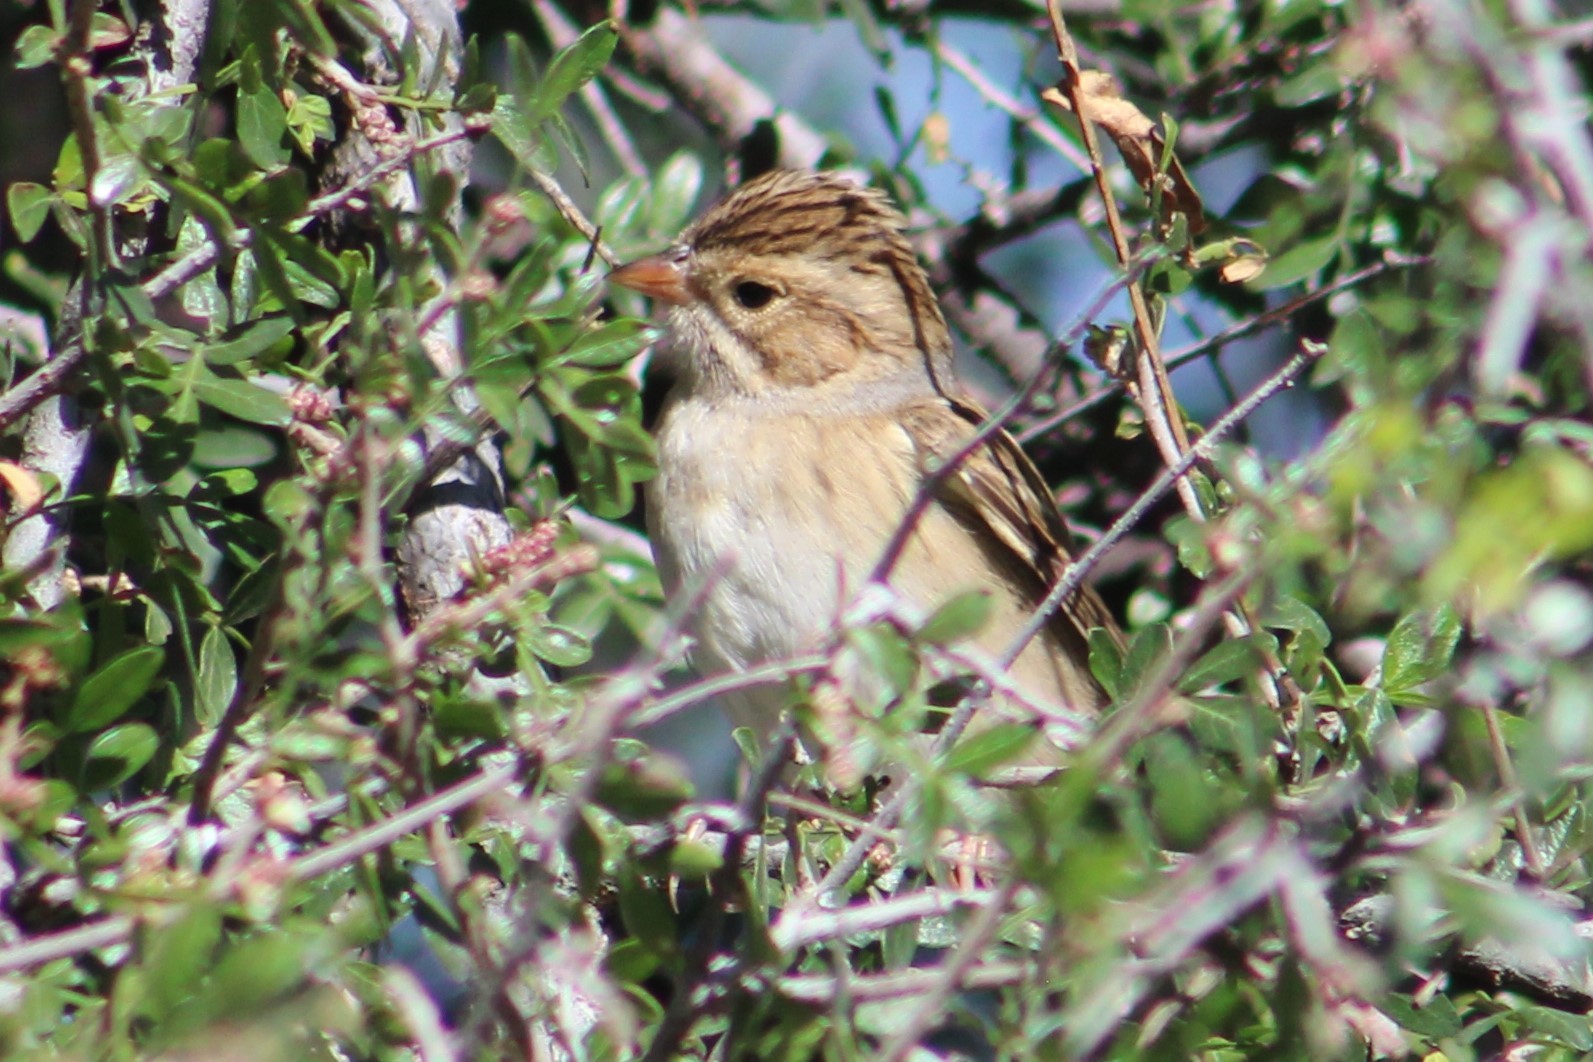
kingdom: Animalia
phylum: Chordata
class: Aves
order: Passeriformes
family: Passerellidae
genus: Spizella
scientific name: Spizella pallida
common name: Clay-colored sparrow
